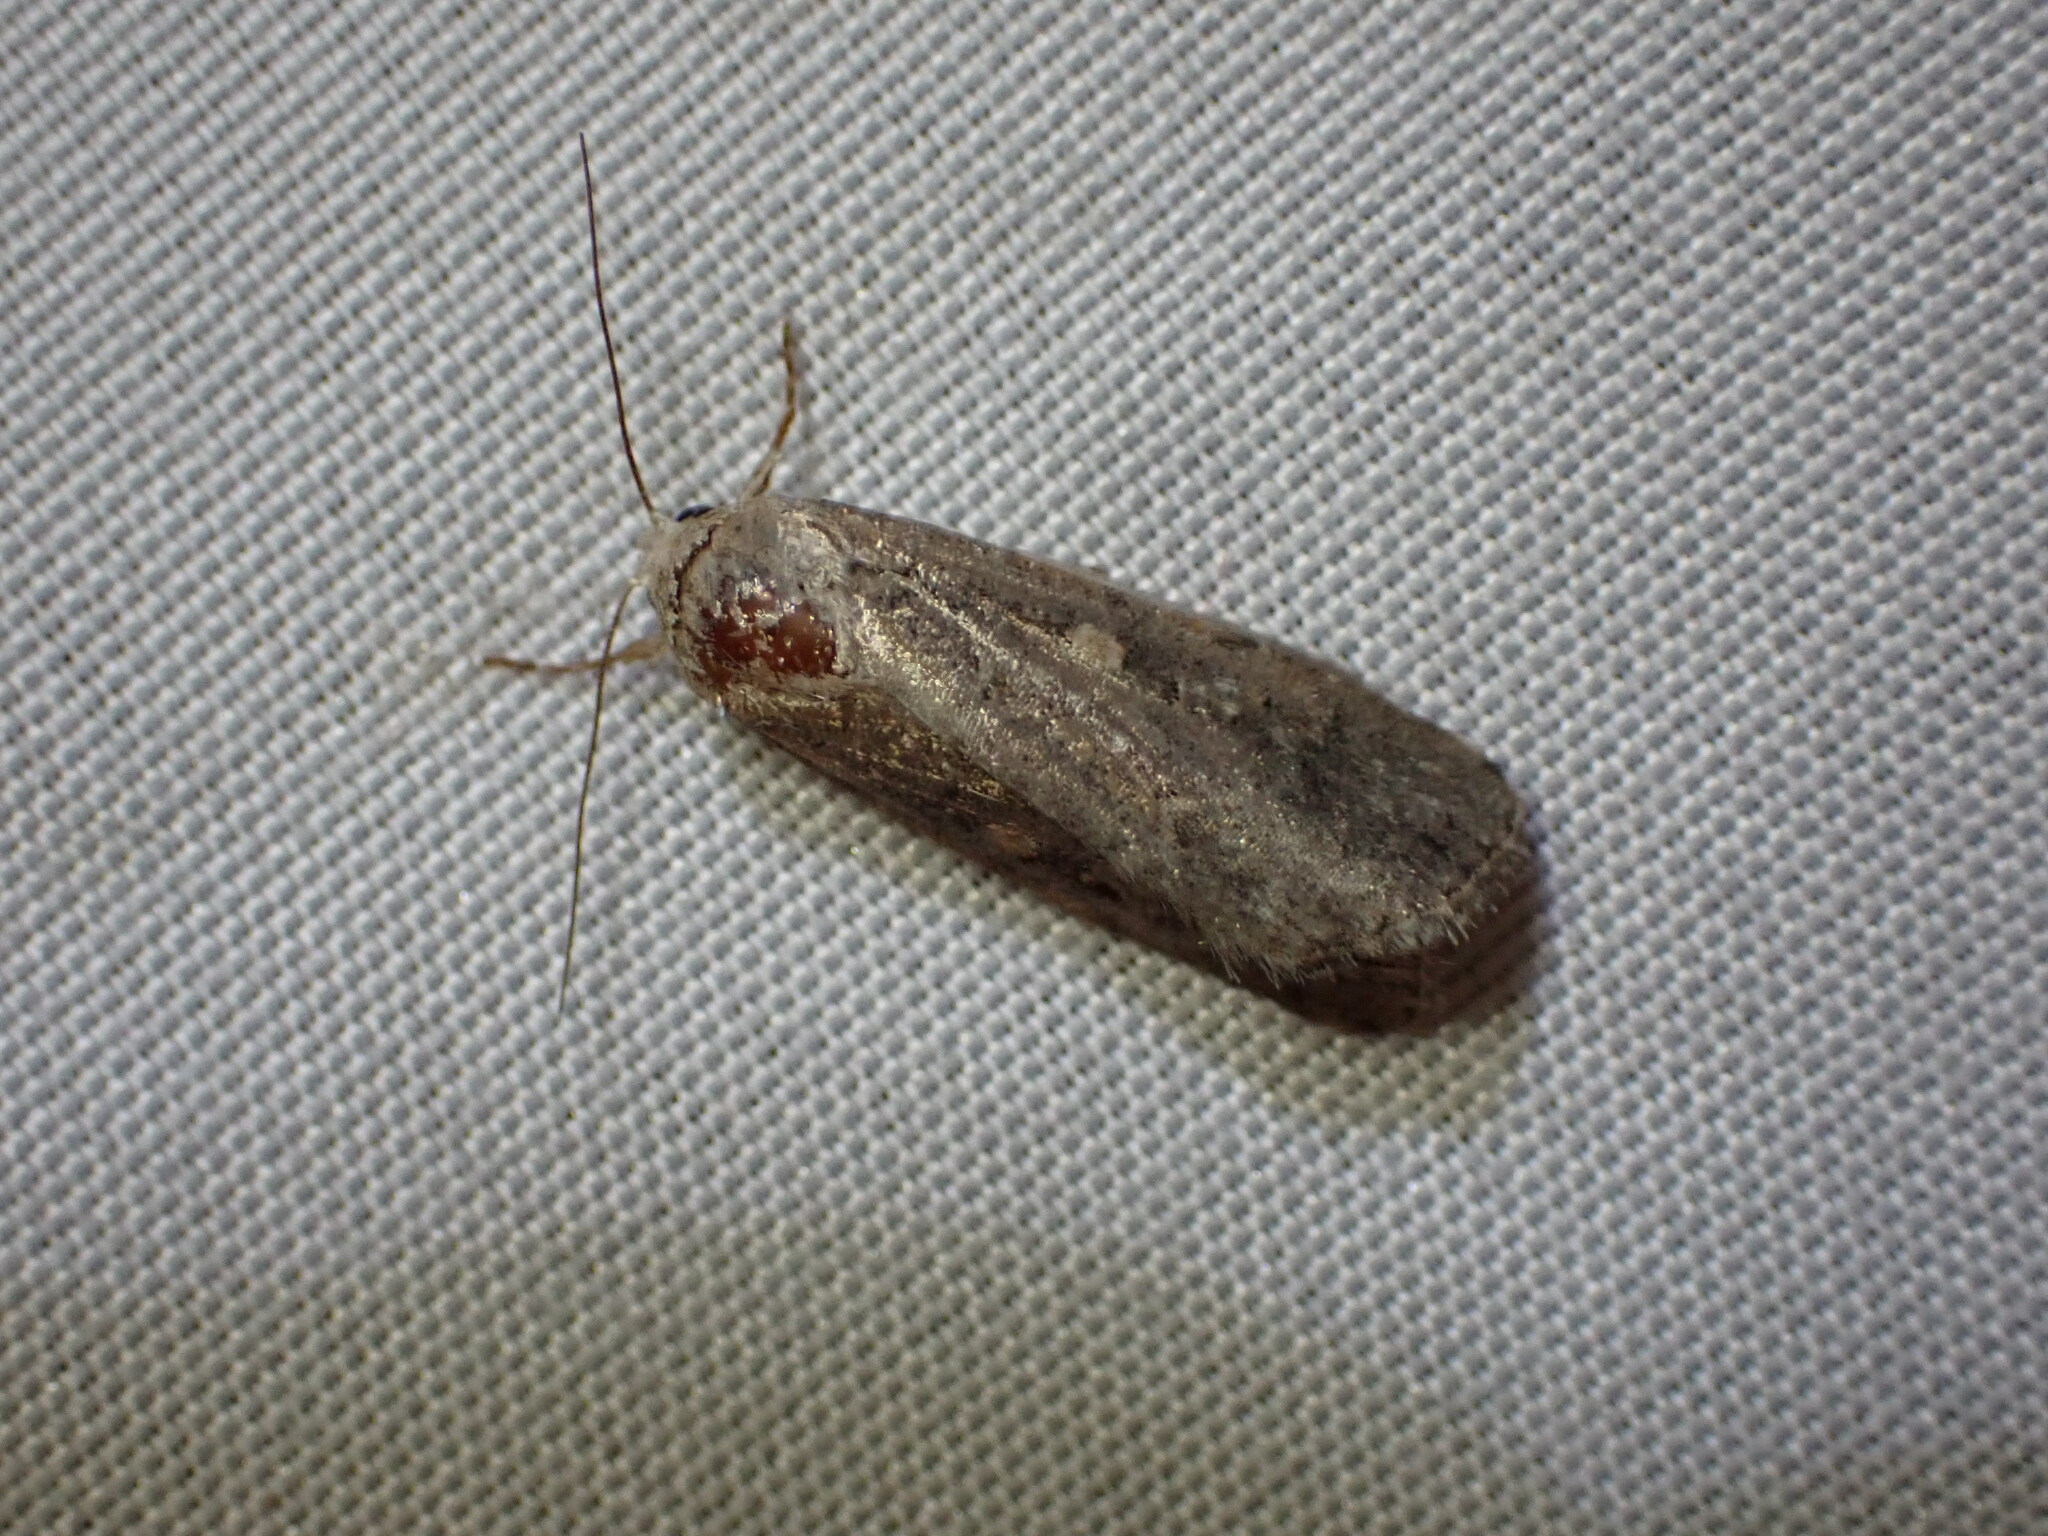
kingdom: Animalia
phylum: Arthropoda
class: Insecta
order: Lepidoptera
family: Noctuidae
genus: Spodoptera
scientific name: Spodoptera exigua
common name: Beet armyworm
